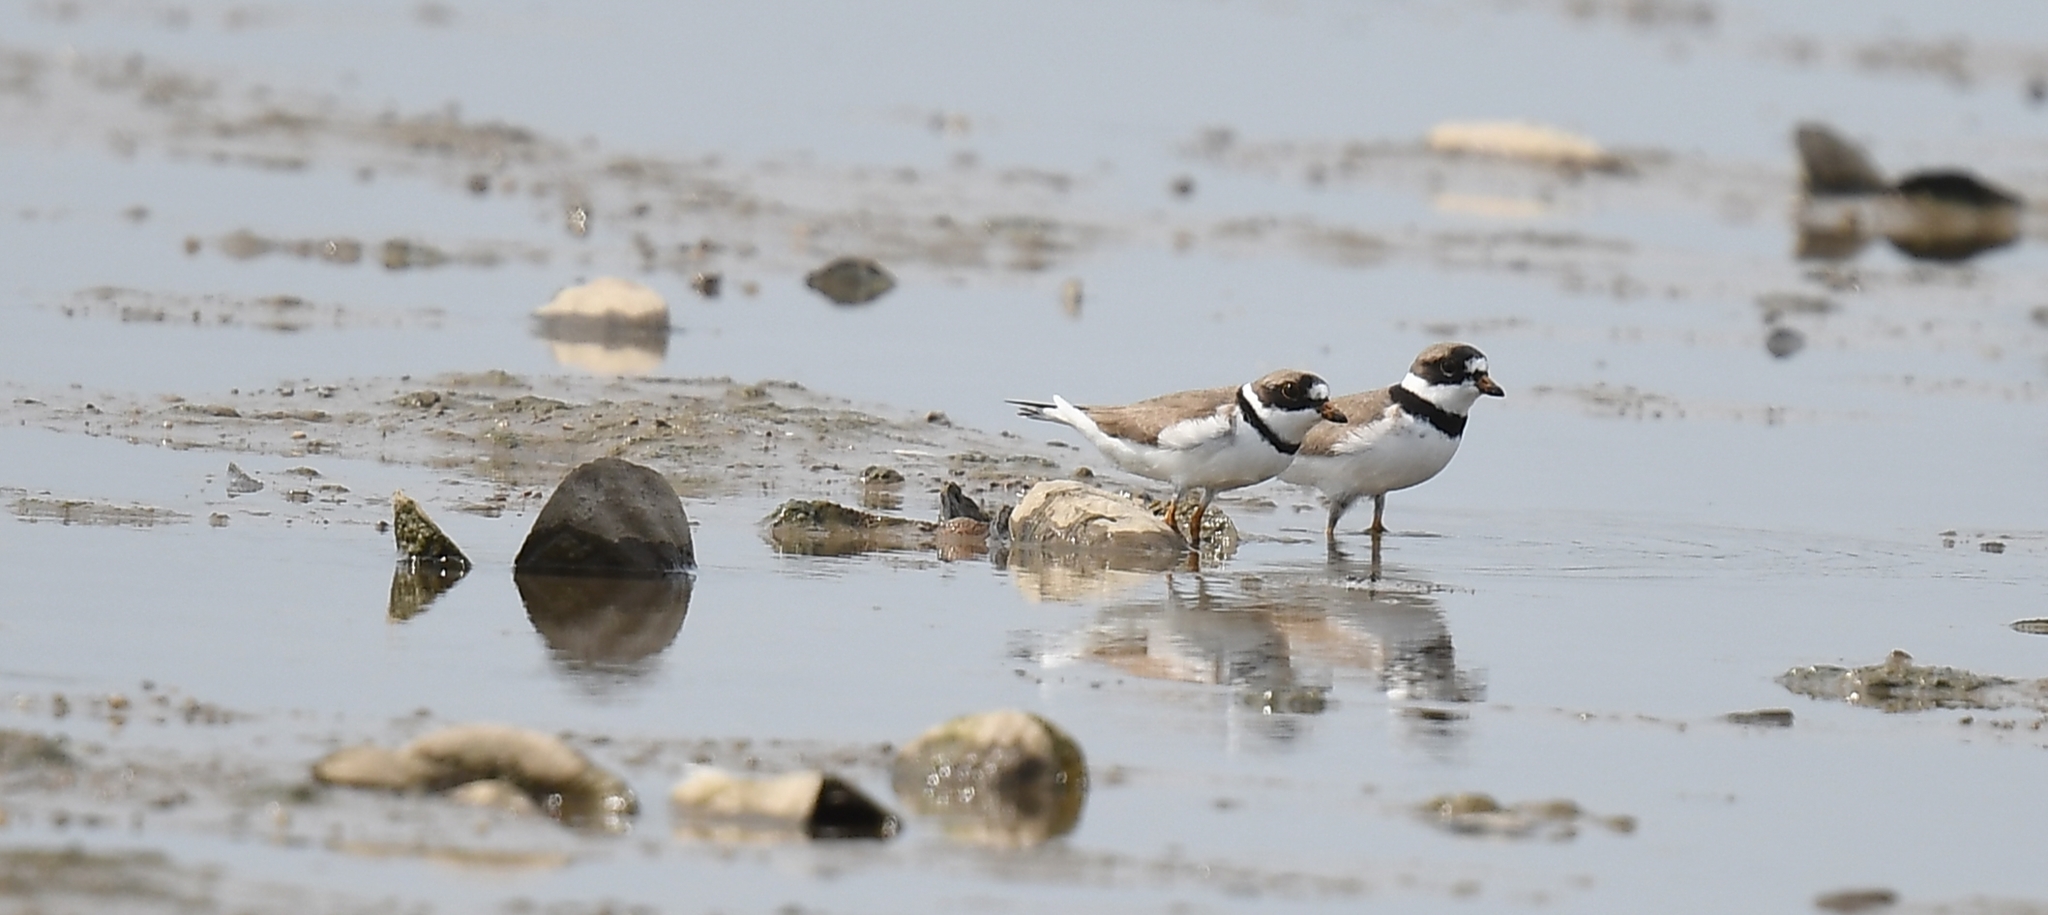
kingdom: Animalia
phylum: Chordata
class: Aves
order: Charadriiformes
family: Charadriidae
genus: Charadrius
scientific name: Charadrius semipalmatus
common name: Semipalmated plover
